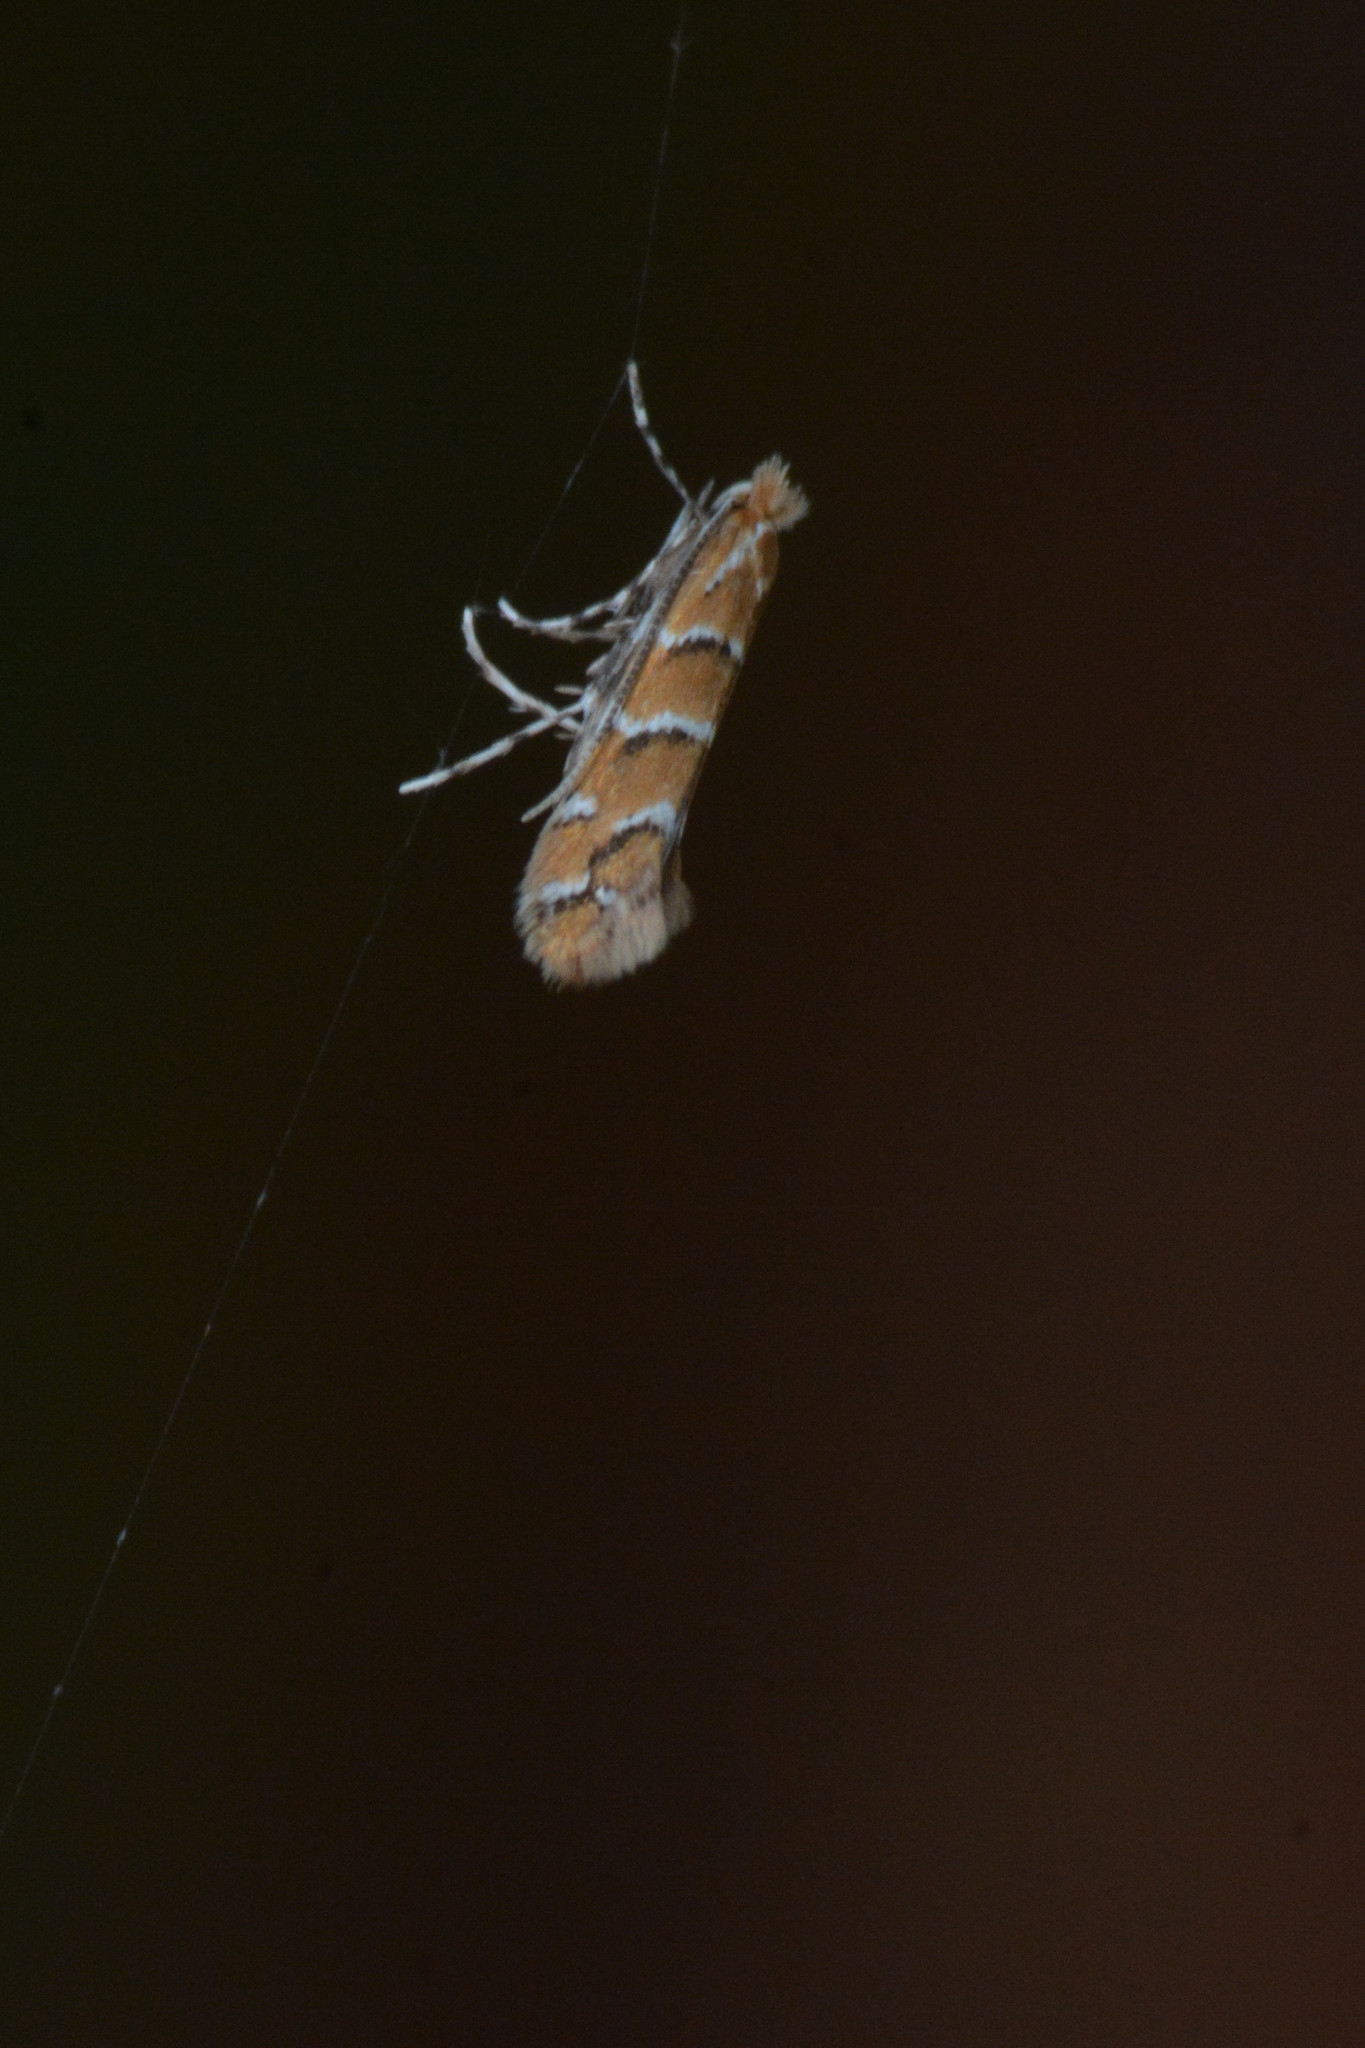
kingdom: Animalia
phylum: Arthropoda
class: Insecta
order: Lepidoptera
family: Gracillariidae
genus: Cameraria
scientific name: Cameraria ohridella
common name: Horse-chestnut leaf-miner
